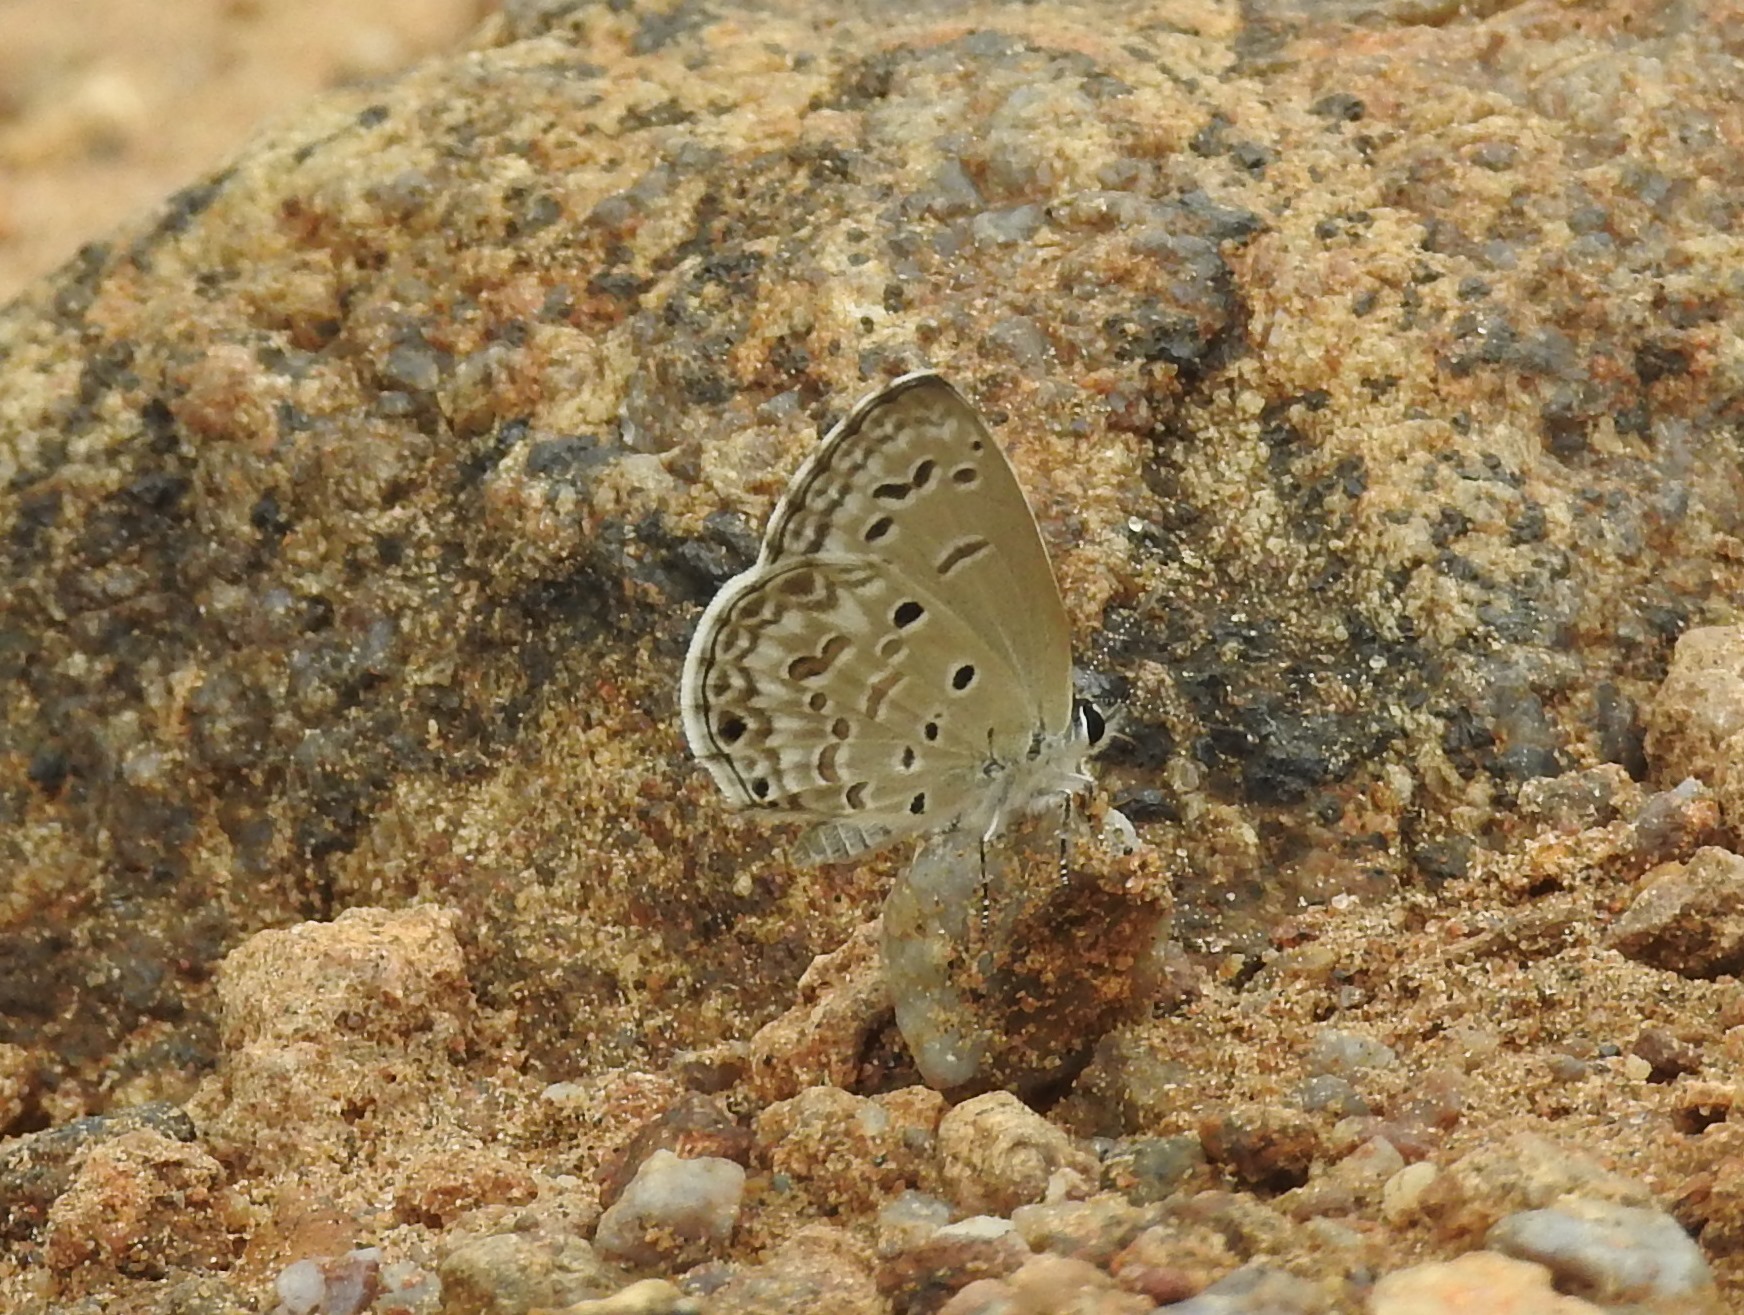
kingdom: Animalia
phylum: Arthropoda
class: Insecta
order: Lepidoptera
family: Lycaenidae
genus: Chilades
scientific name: Chilades laius
